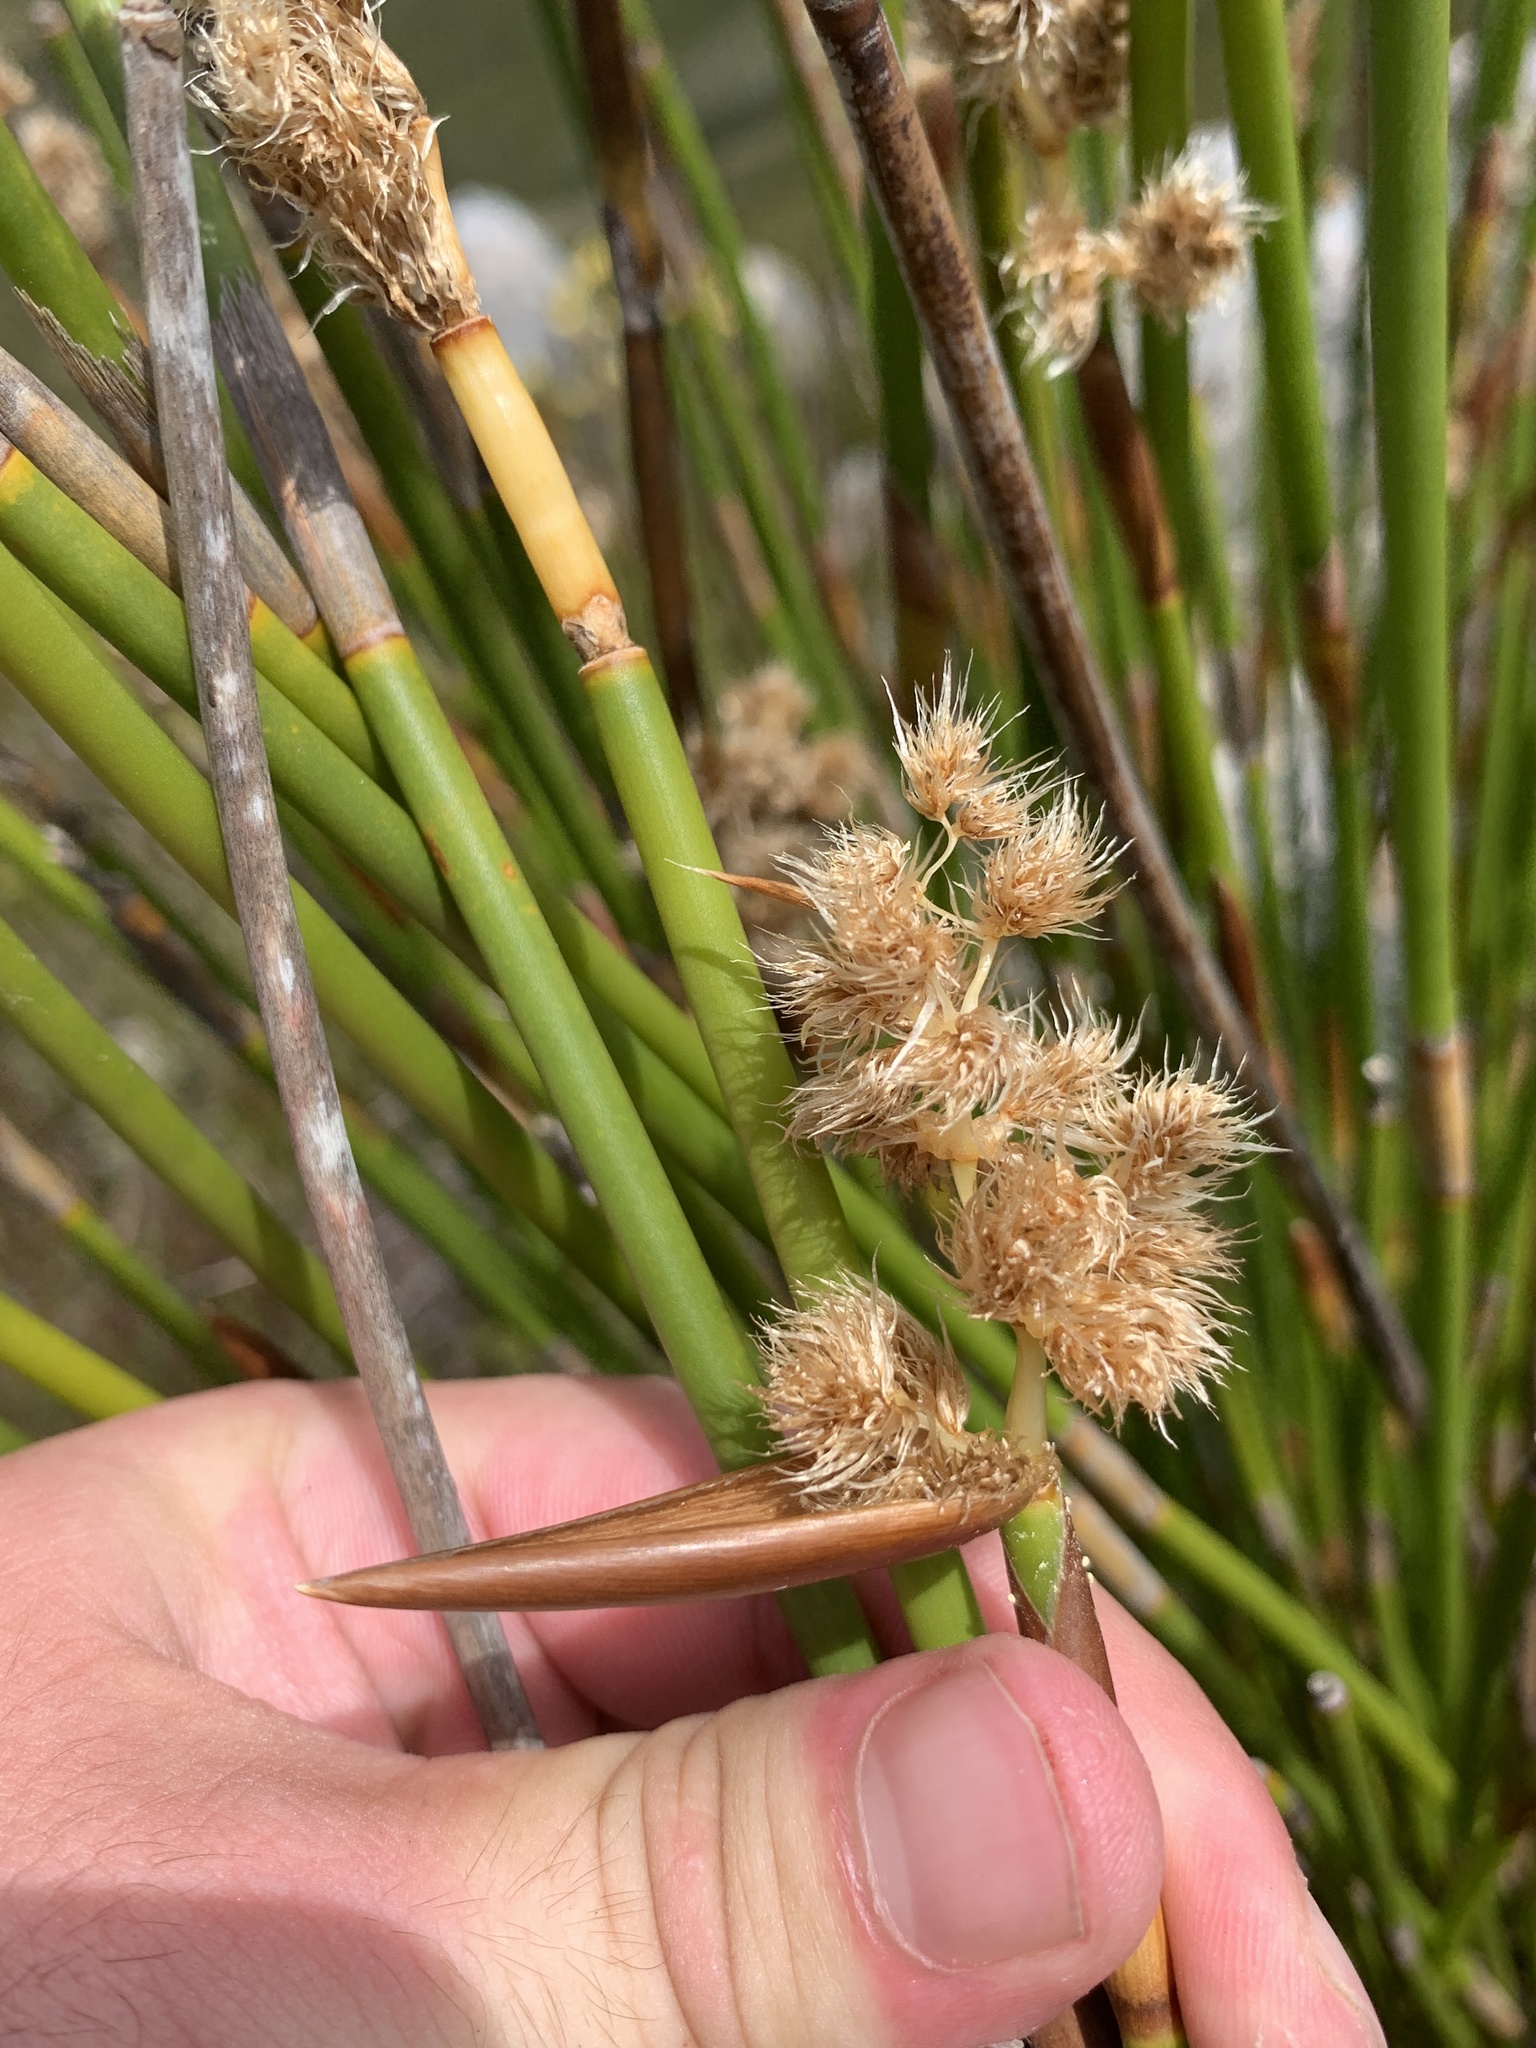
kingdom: Plantae
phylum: Tracheophyta
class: Liliopsida
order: Poales
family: Restionaceae
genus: Ceratocaryum
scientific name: Ceratocaryum caespitosum
